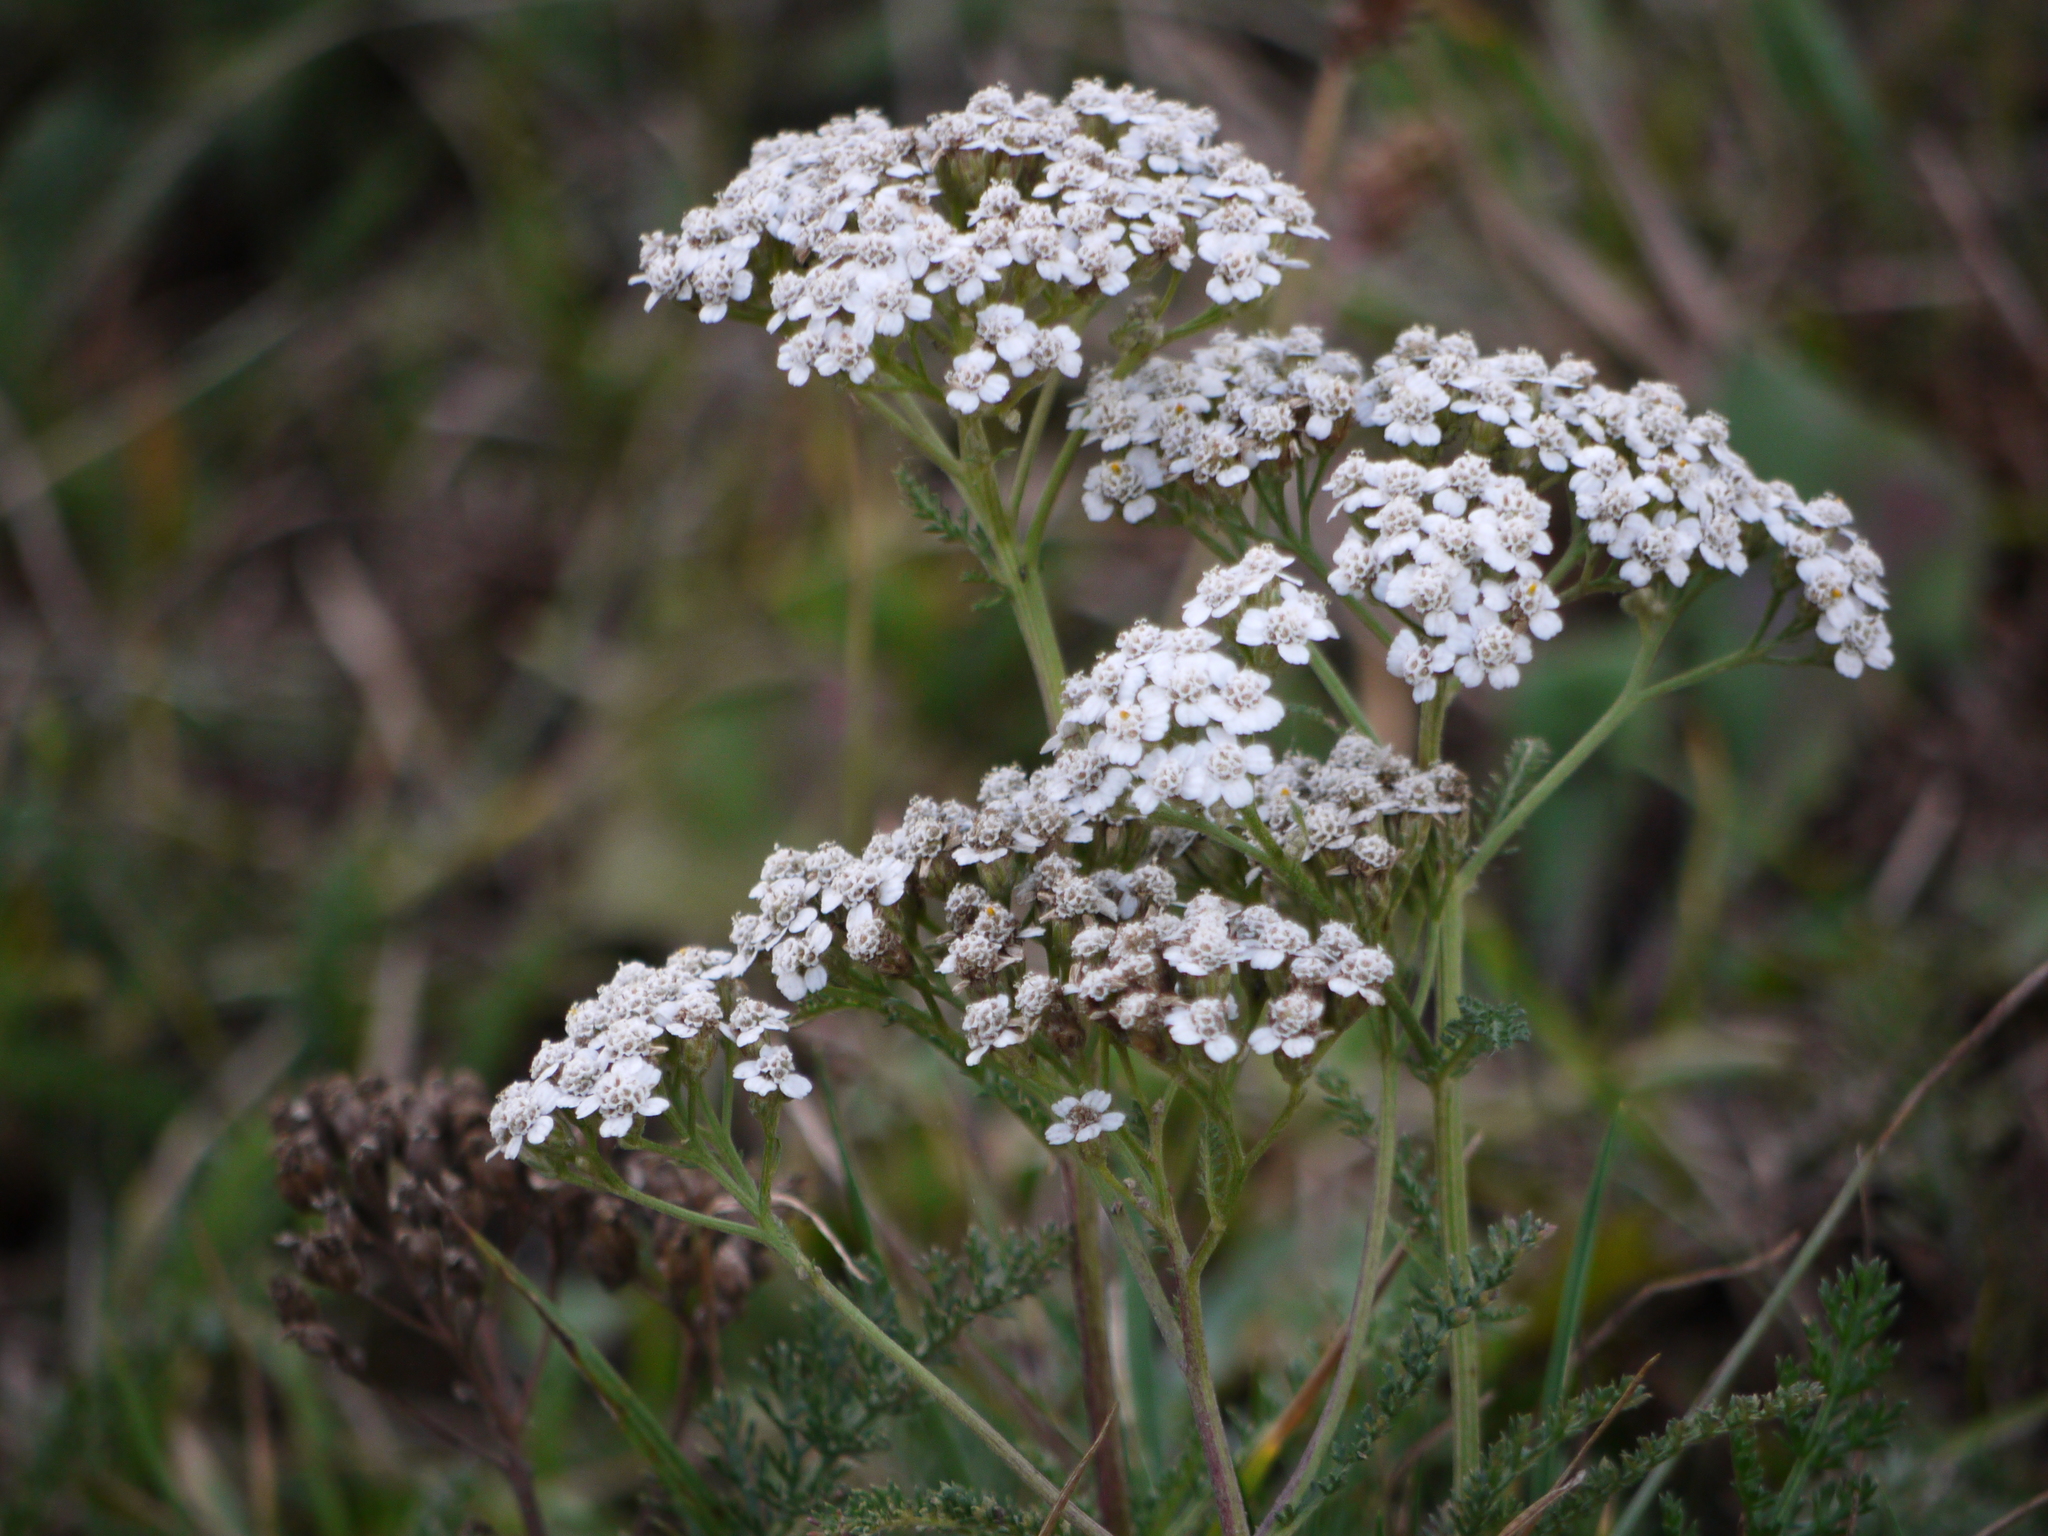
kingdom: Plantae
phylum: Tracheophyta
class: Magnoliopsida
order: Asterales
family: Asteraceae
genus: Achillea
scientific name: Achillea millefolium
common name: Yarrow
